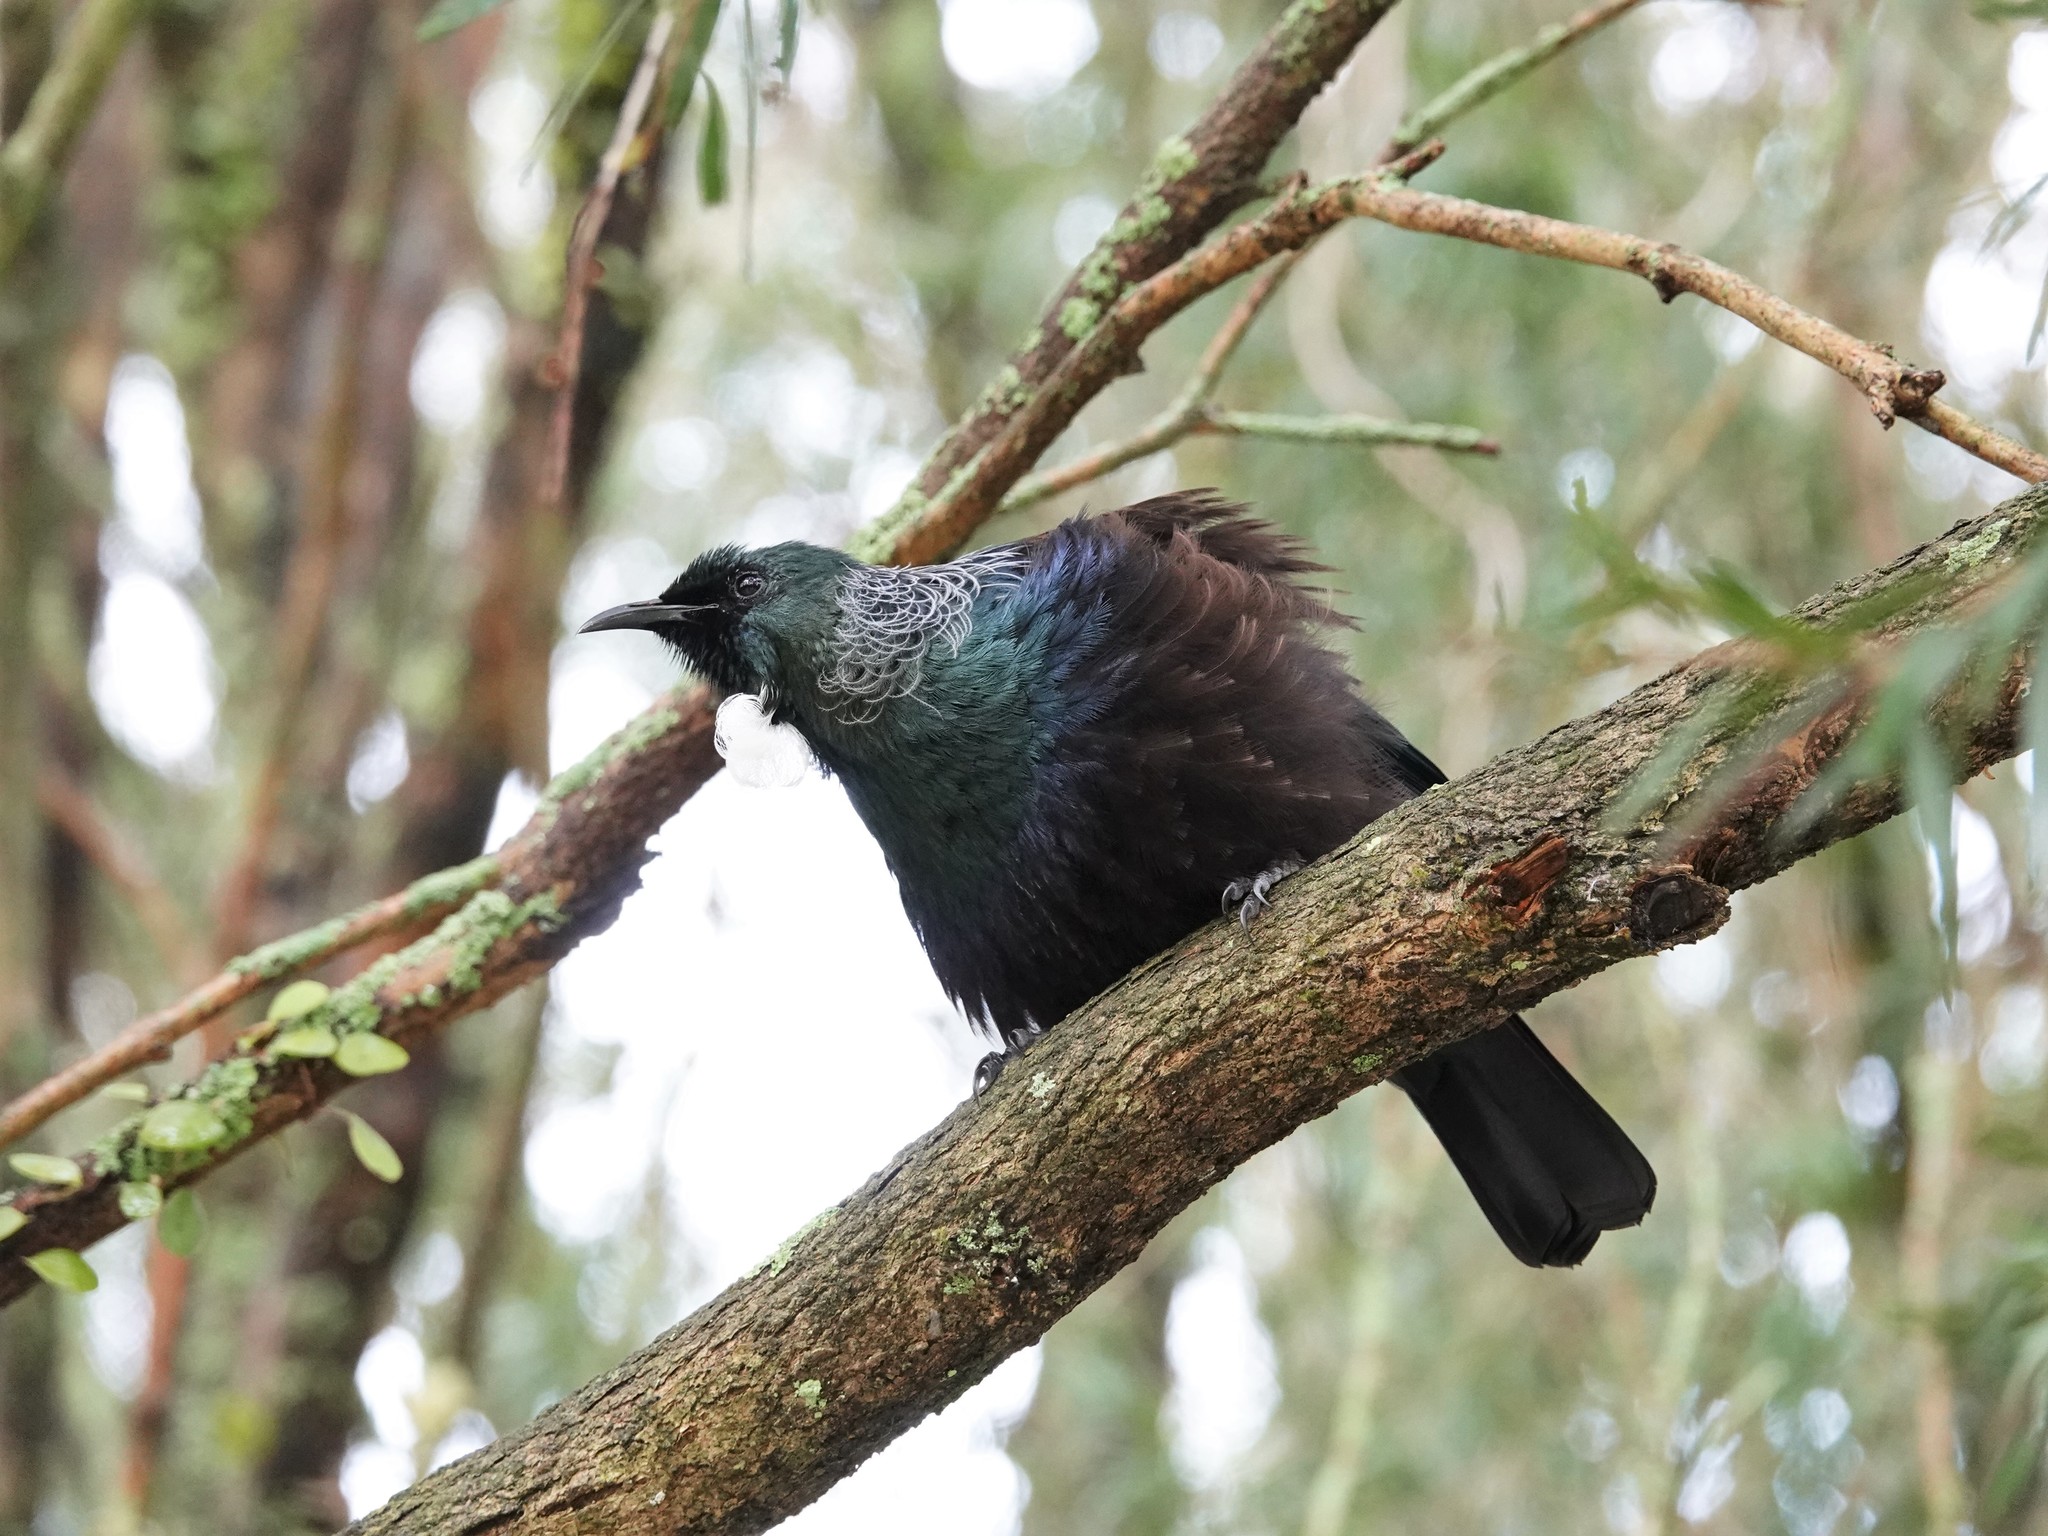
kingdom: Animalia
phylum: Chordata
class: Aves
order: Passeriformes
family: Meliphagidae
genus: Prosthemadera
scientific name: Prosthemadera novaeseelandiae
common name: Tui
